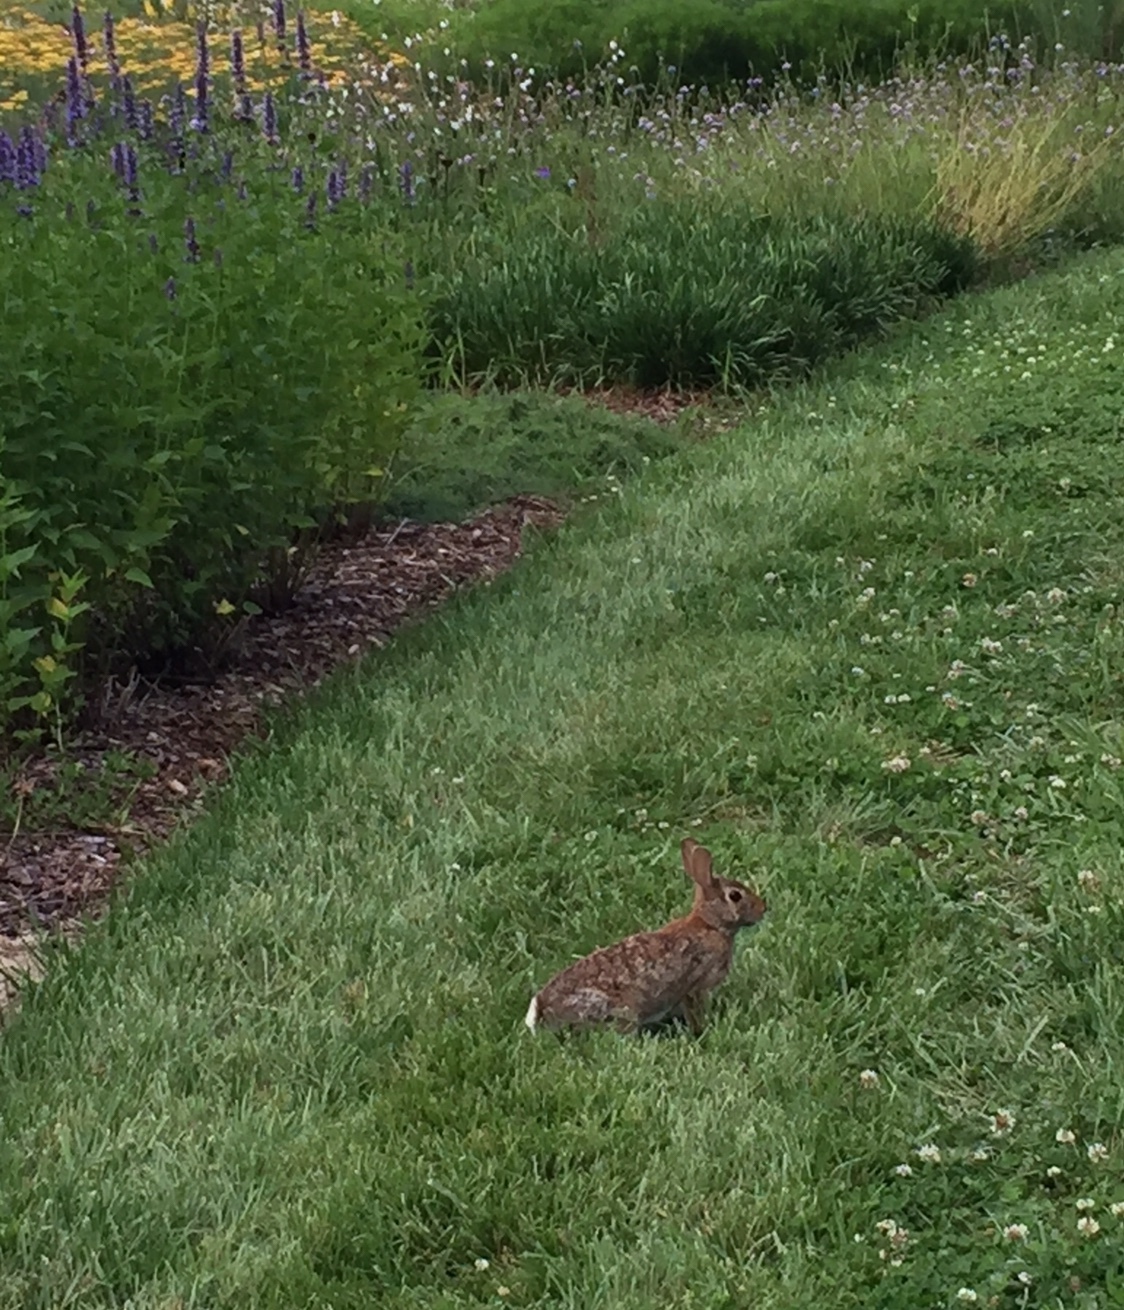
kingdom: Animalia
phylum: Chordata
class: Mammalia
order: Lagomorpha
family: Leporidae
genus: Sylvilagus
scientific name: Sylvilagus floridanus
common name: Eastern cottontail
